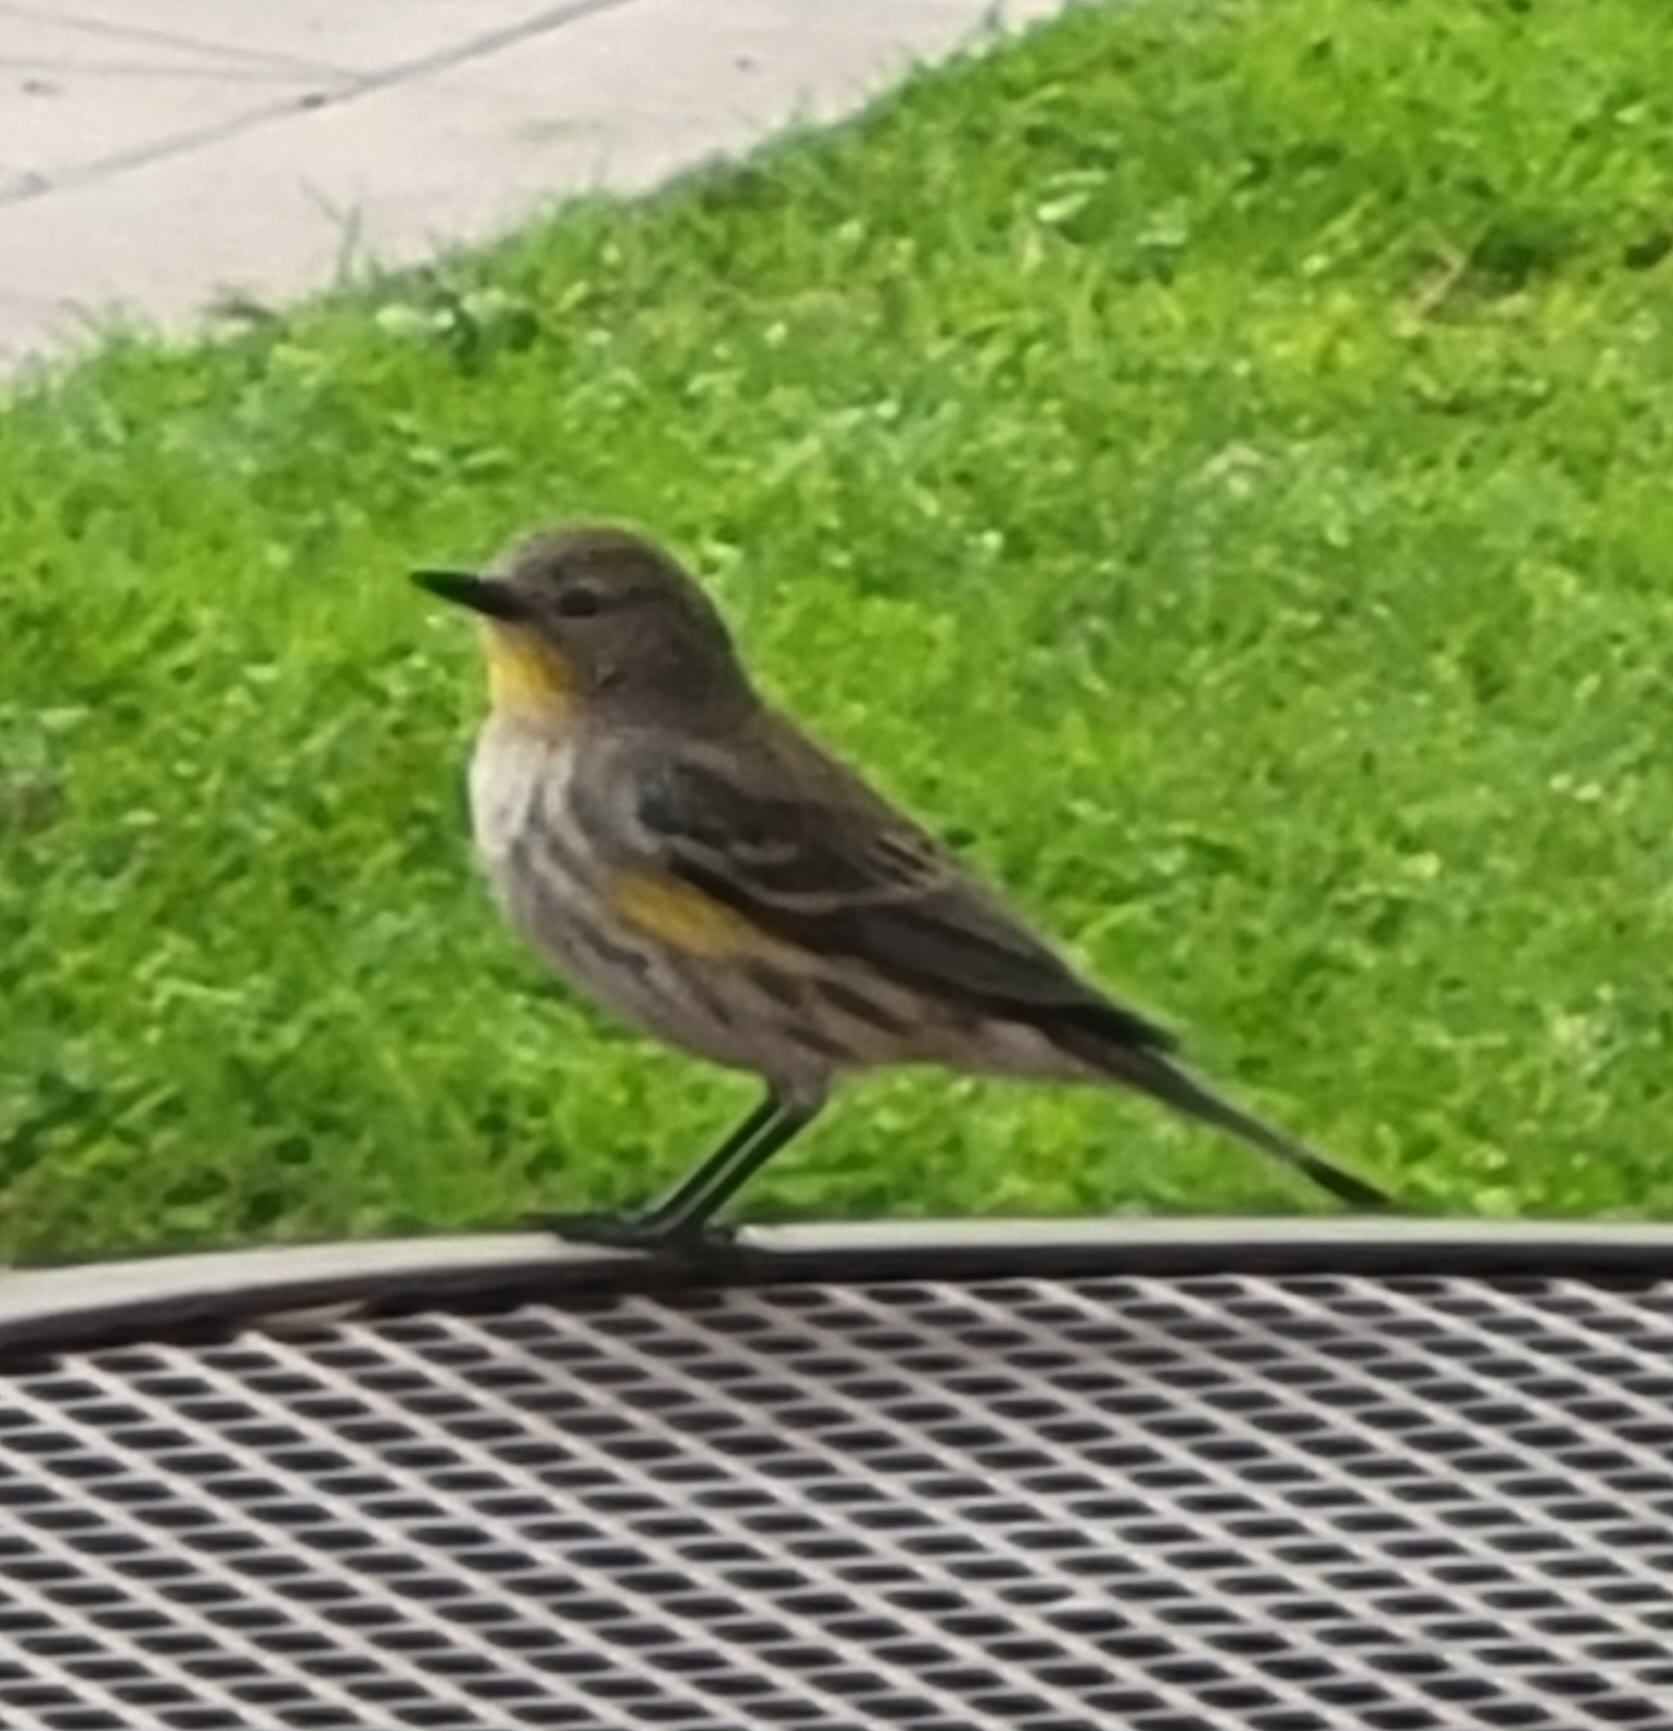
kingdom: Animalia
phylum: Chordata
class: Aves
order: Passeriformes
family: Parulidae
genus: Setophaga
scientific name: Setophaga coronata
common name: Myrtle warbler
